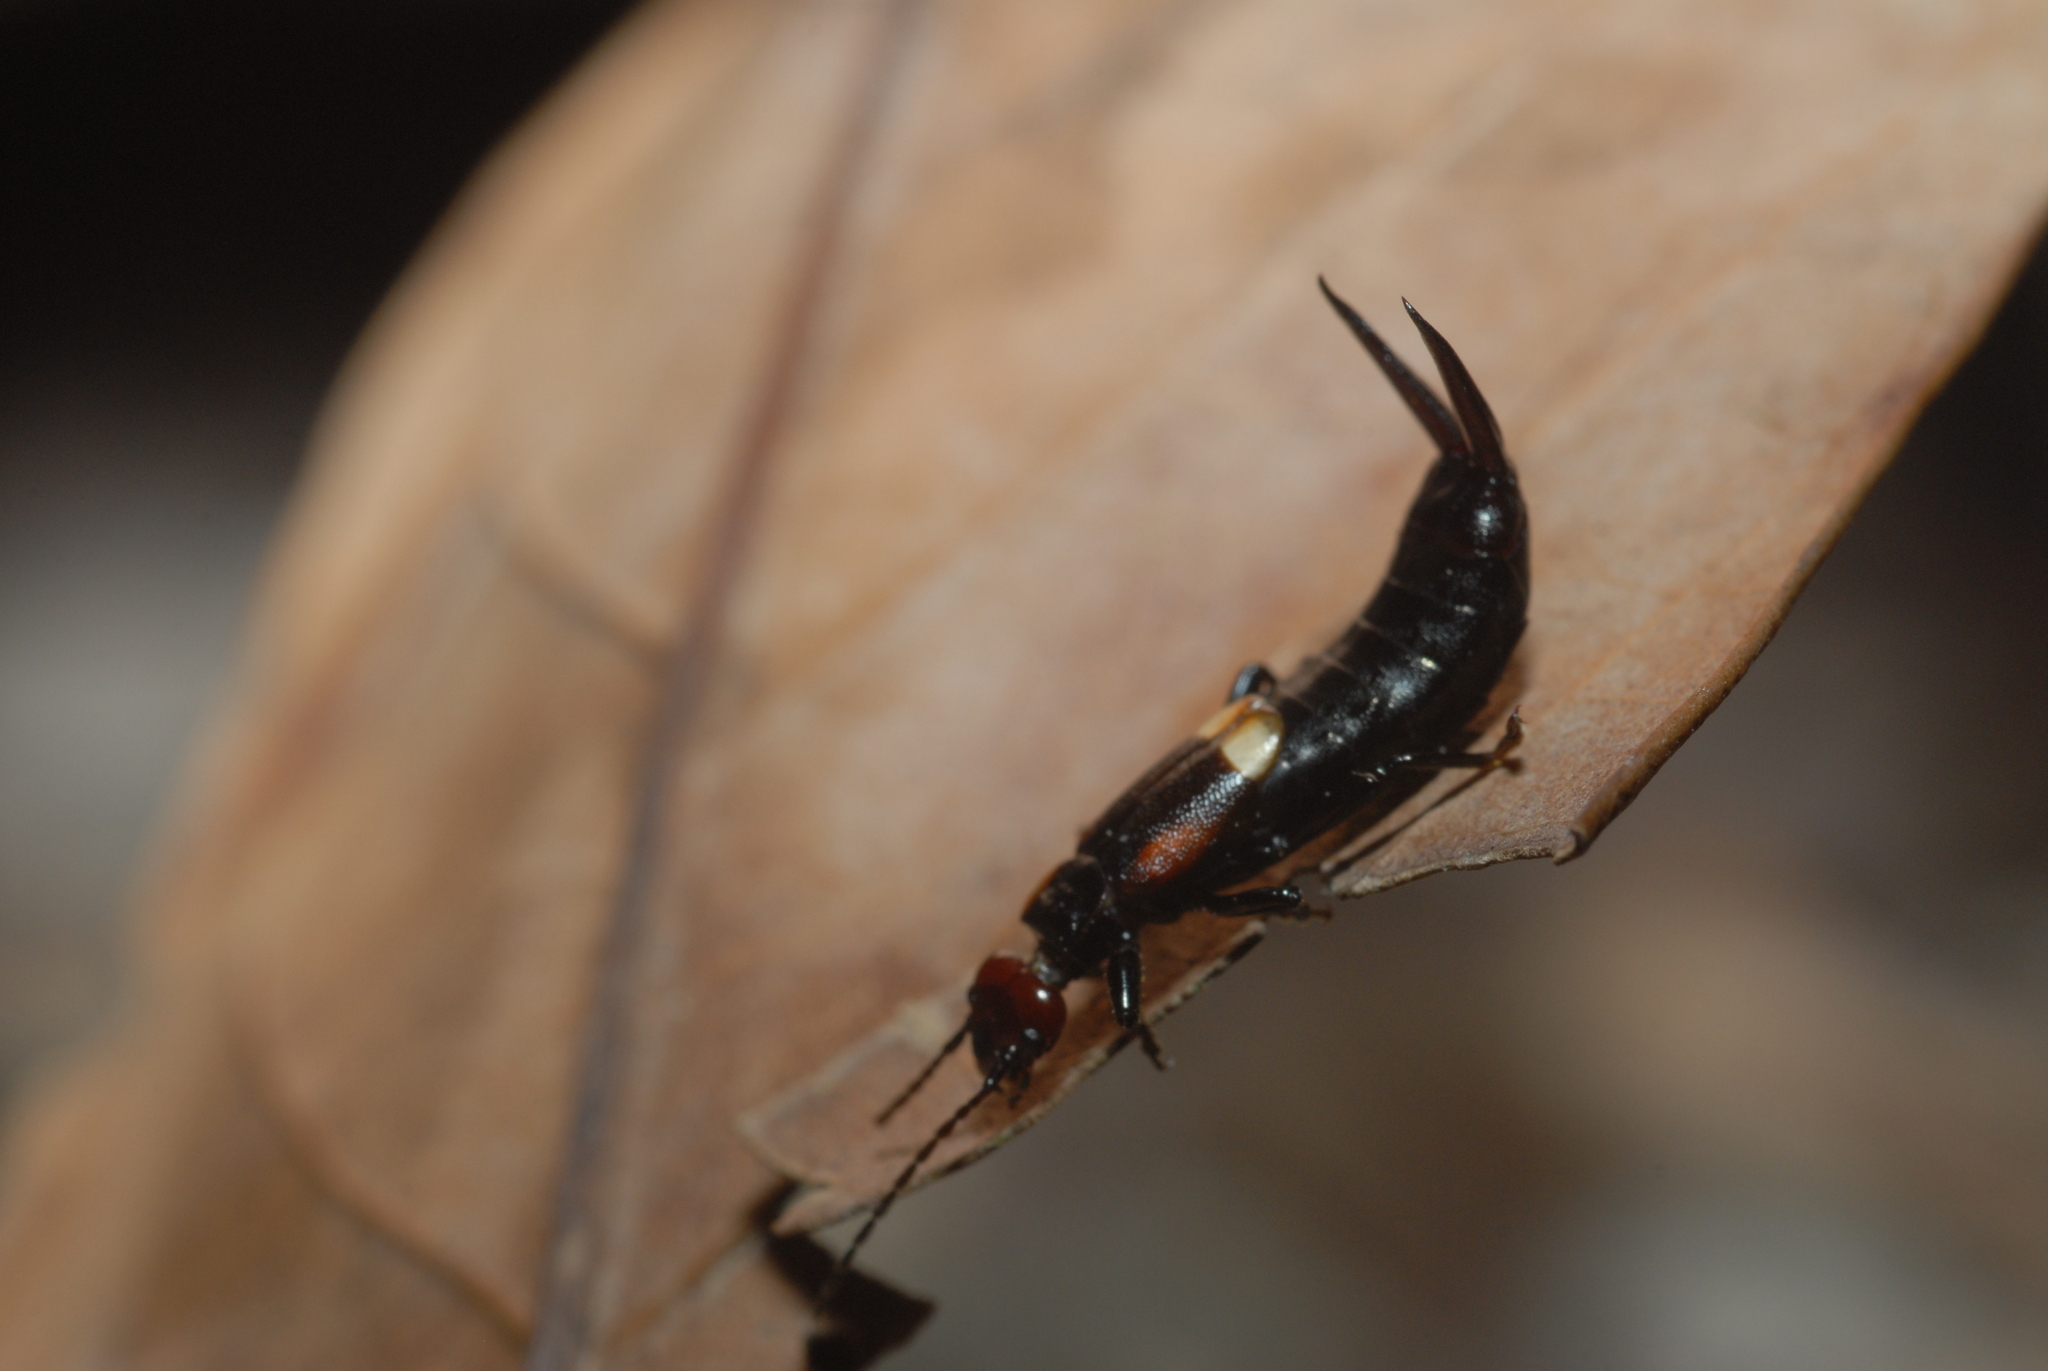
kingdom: Animalia
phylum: Arthropoda
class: Insecta
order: Dermaptera
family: Forficulidae
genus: Pterygida
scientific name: Pterygida ornaticapitata
